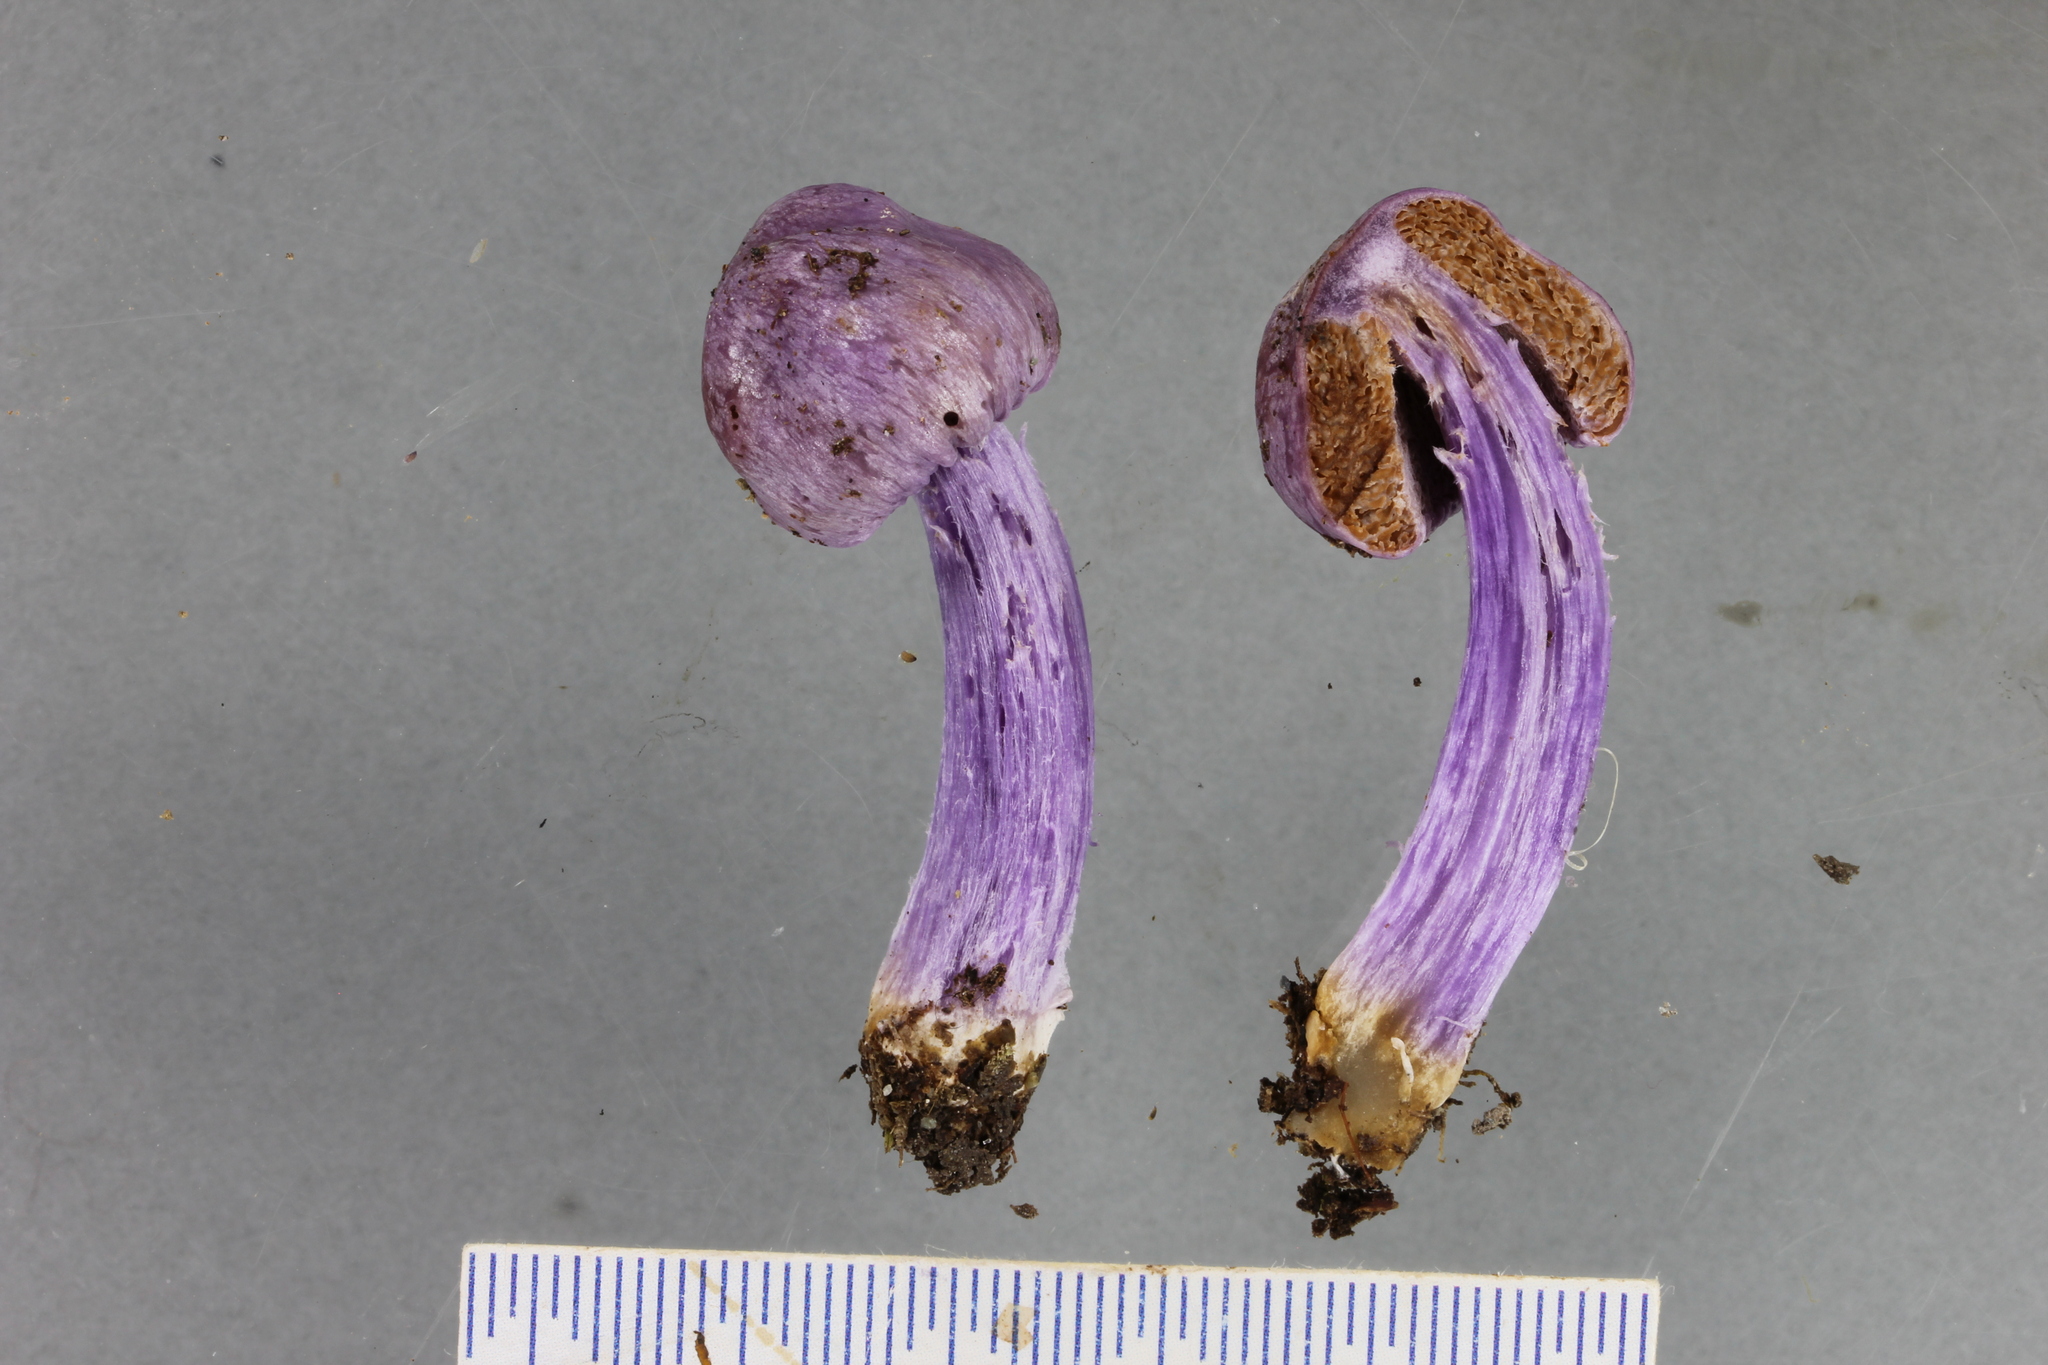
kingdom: Fungi
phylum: Basidiomycota
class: Agaricomycetes
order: Agaricales
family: Cortinariaceae
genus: Cortinarius
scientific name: Cortinarius diaphorus
